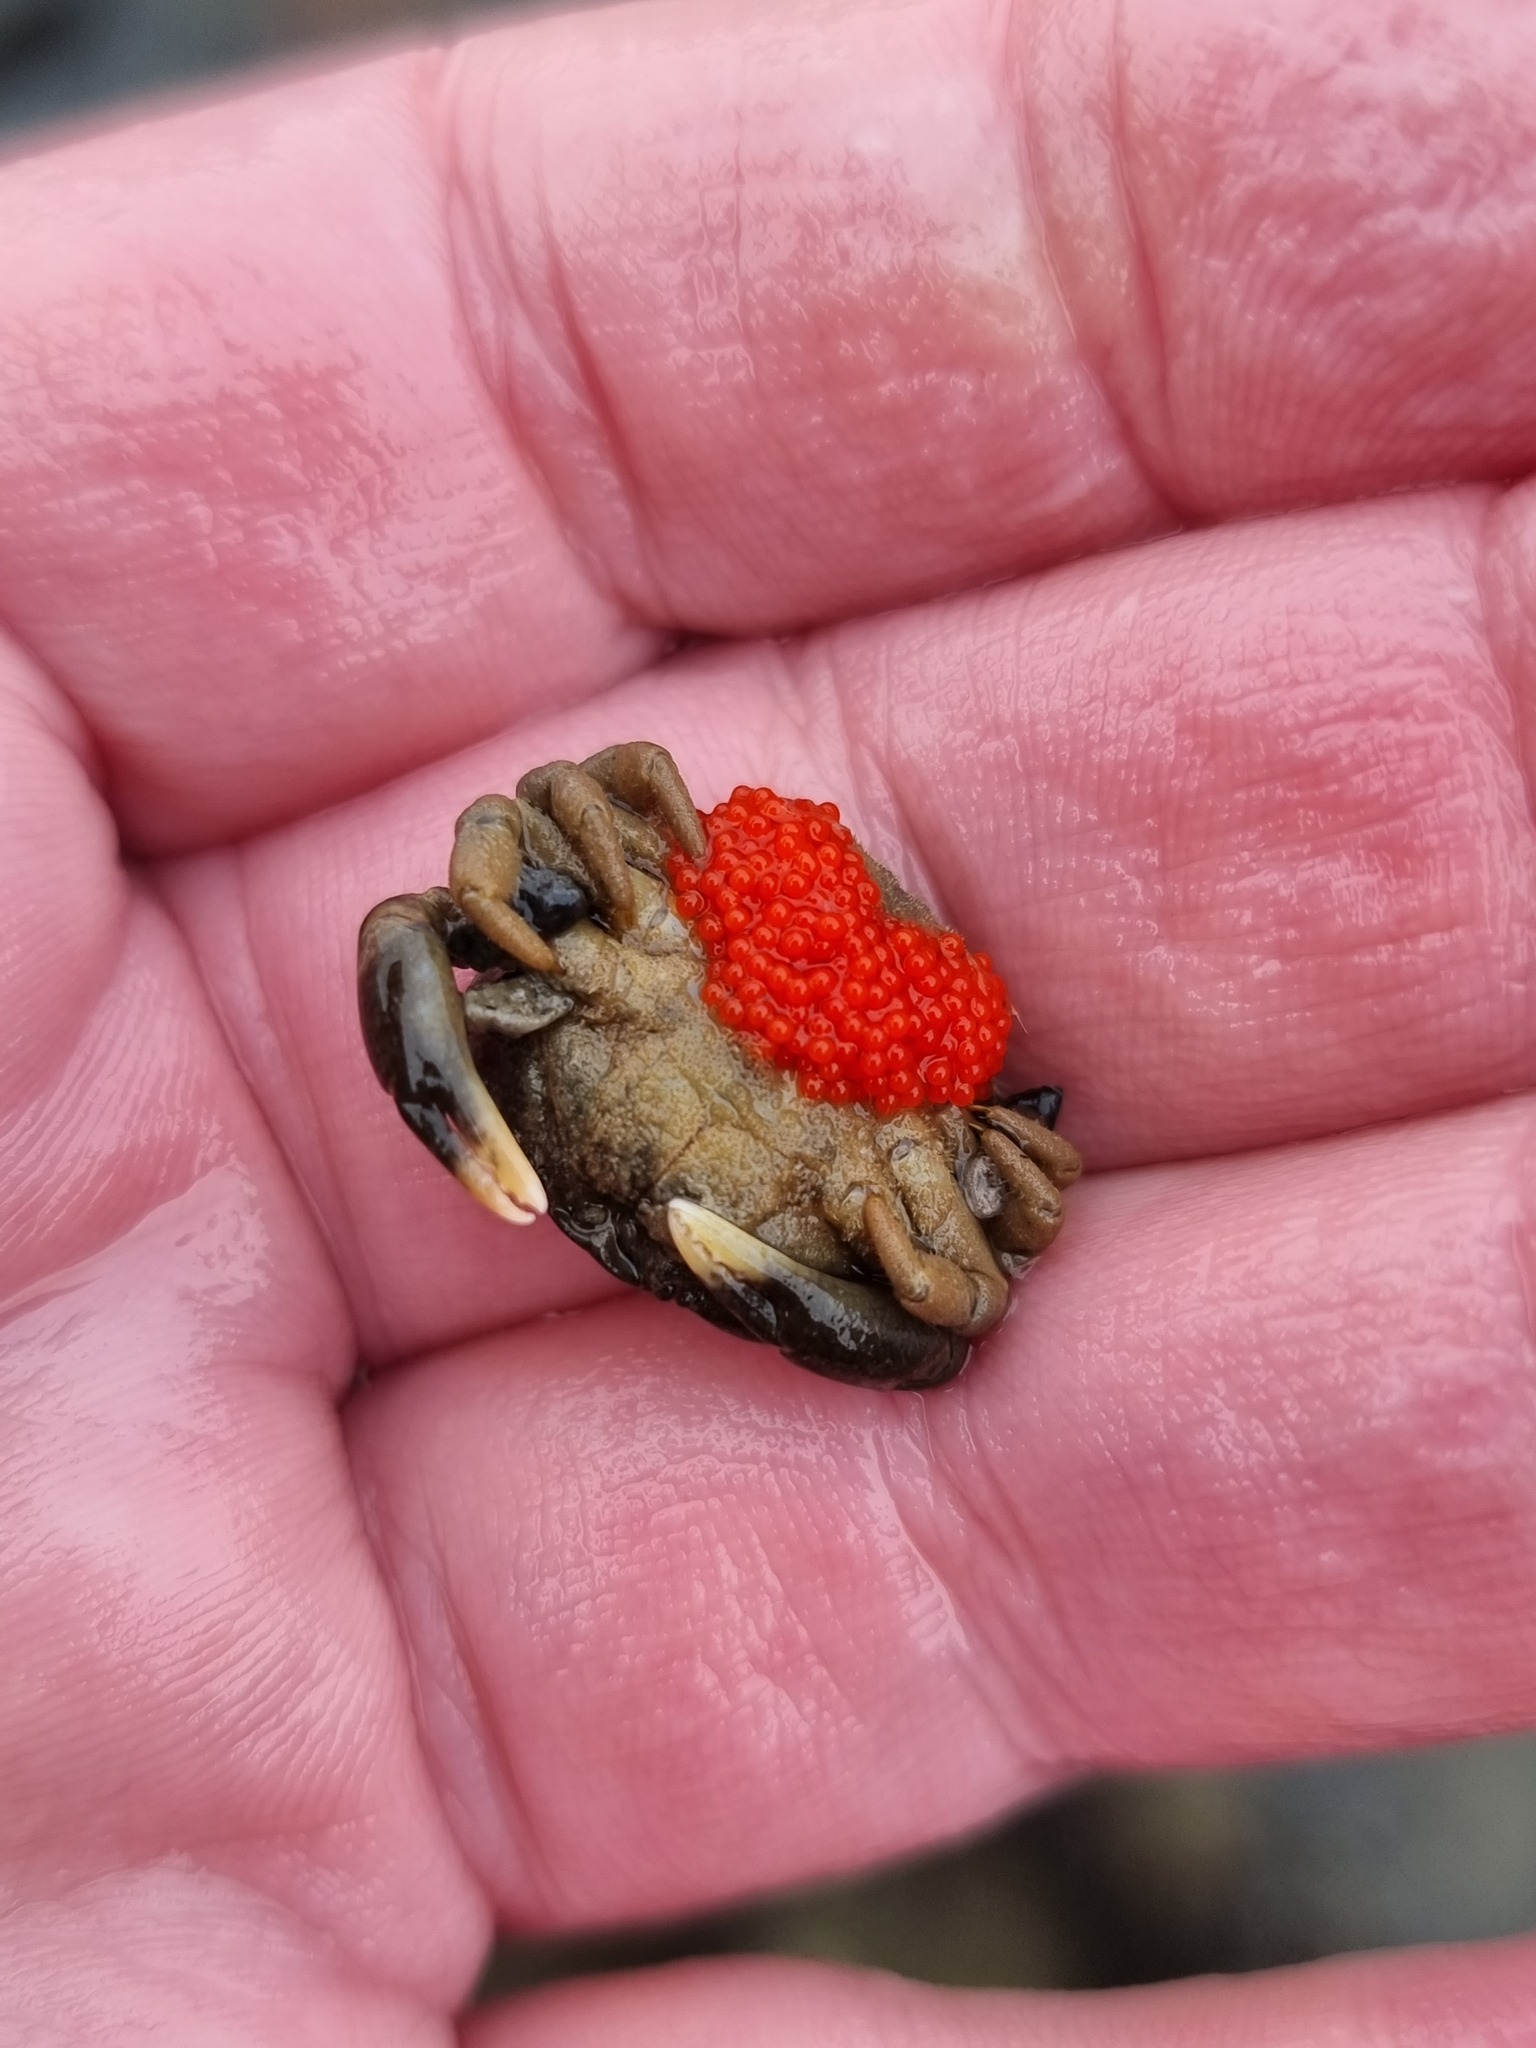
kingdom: Animalia
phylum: Arthropoda
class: Malacostraca
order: Decapoda
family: Heteroziidae
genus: Heterozius
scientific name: Heterozius rotundifrons
